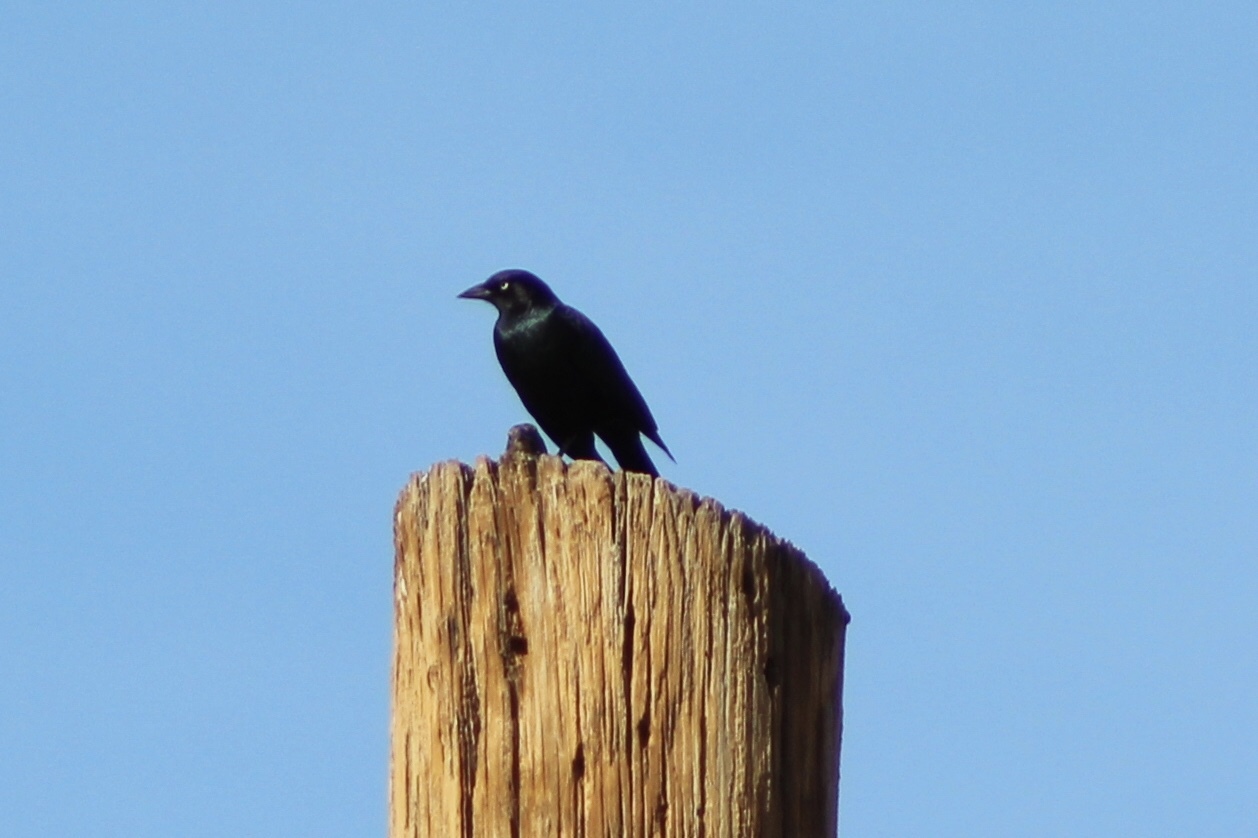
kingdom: Animalia
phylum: Chordata
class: Aves
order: Passeriformes
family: Icteridae
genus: Euphagus
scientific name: Euphagus cyanocephalus
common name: Brewer's blackbird
